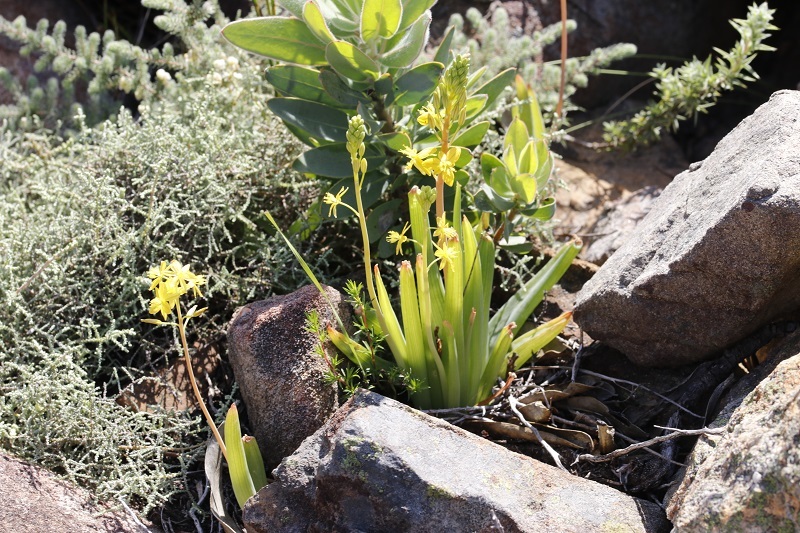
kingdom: Plantae
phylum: Tracheophyta
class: Liliopsida
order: Asparagales
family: Asphodelaceae
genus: Bulbine
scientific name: Bulbine praemorsa
